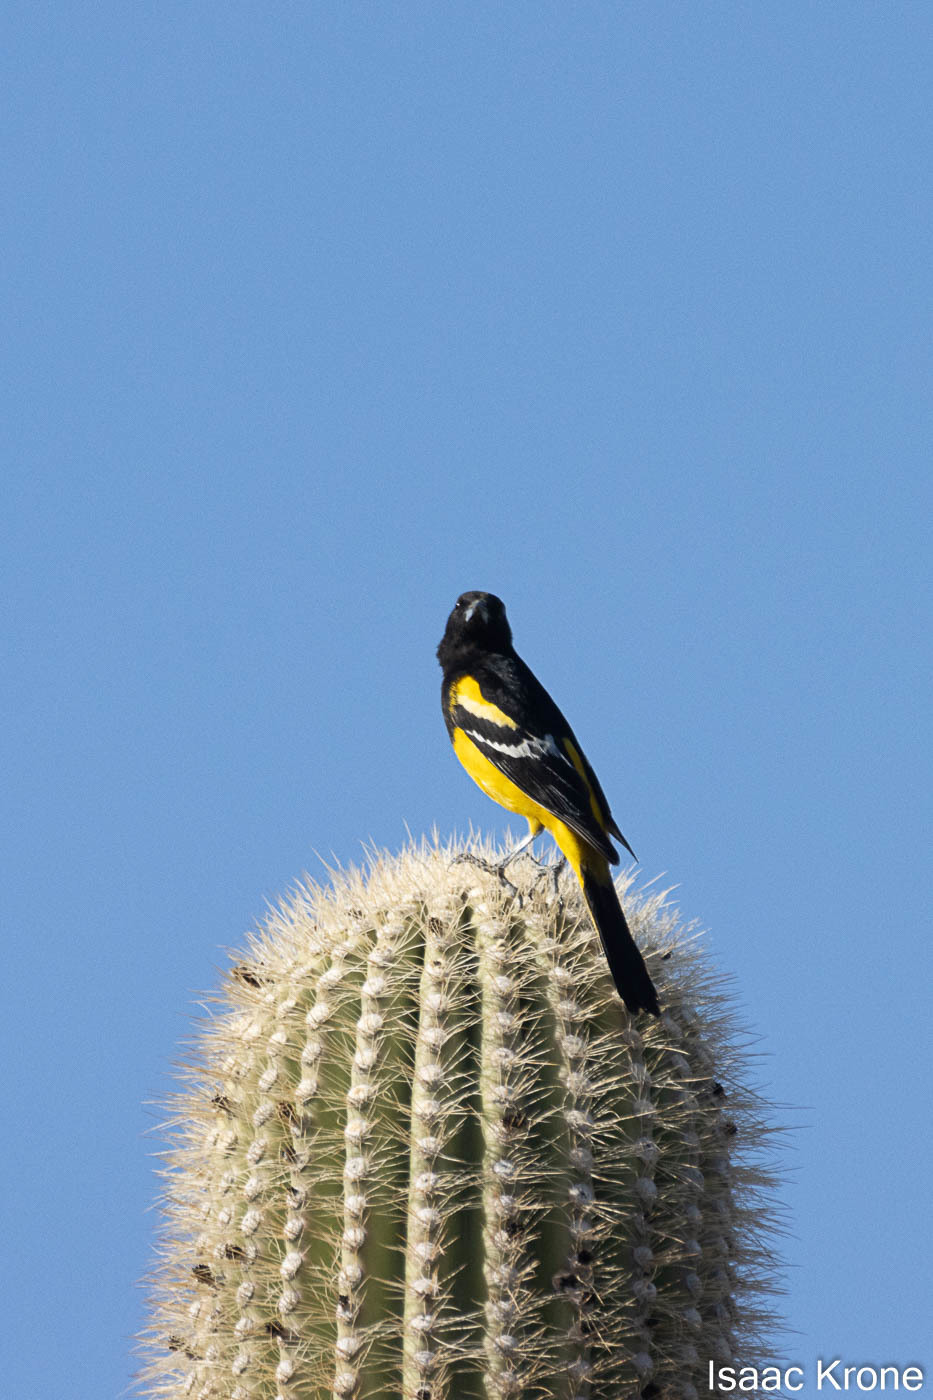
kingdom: Animalia
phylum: Chordata
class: Aves
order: Passeriformes
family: Icteridae
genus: Icterus
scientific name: Icterus parisorum
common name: Scott's oriole
